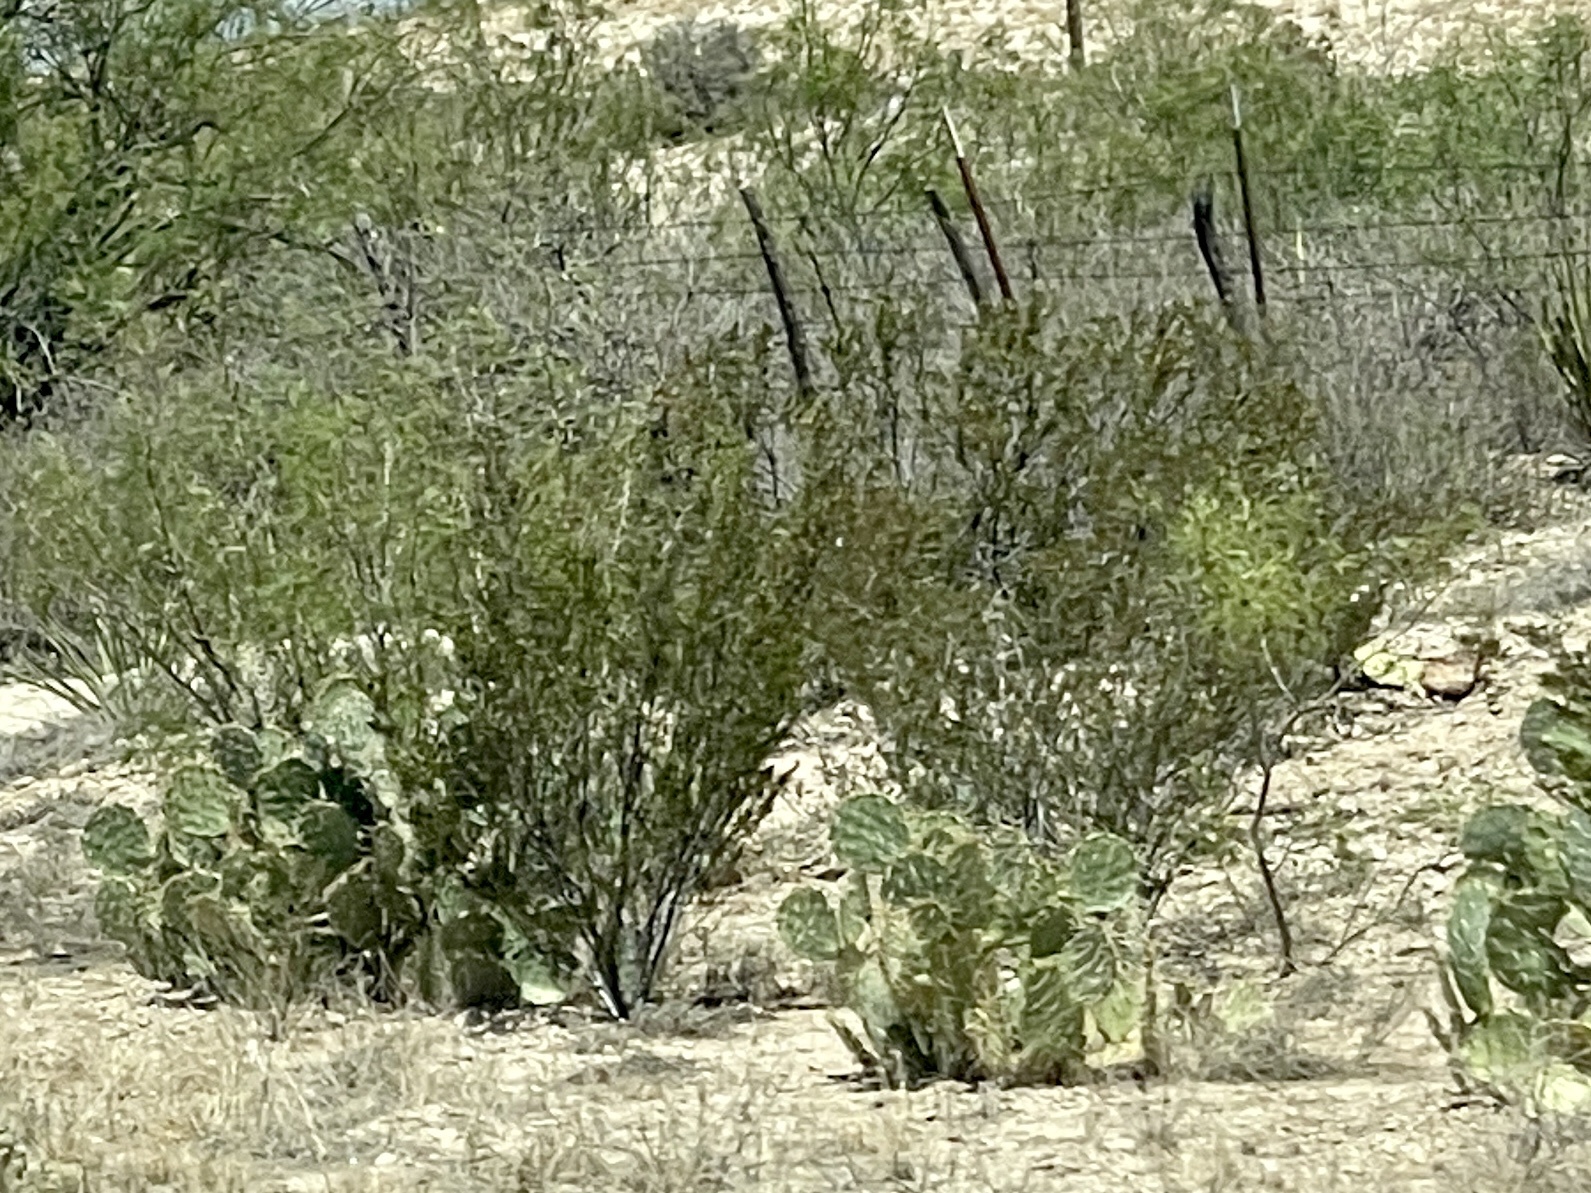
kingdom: Plantae
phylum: Tracheophyta
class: Magnoliopsida
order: Zygophyllales
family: Zygophyllaceae
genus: Larrea
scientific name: Larrea tridentata
